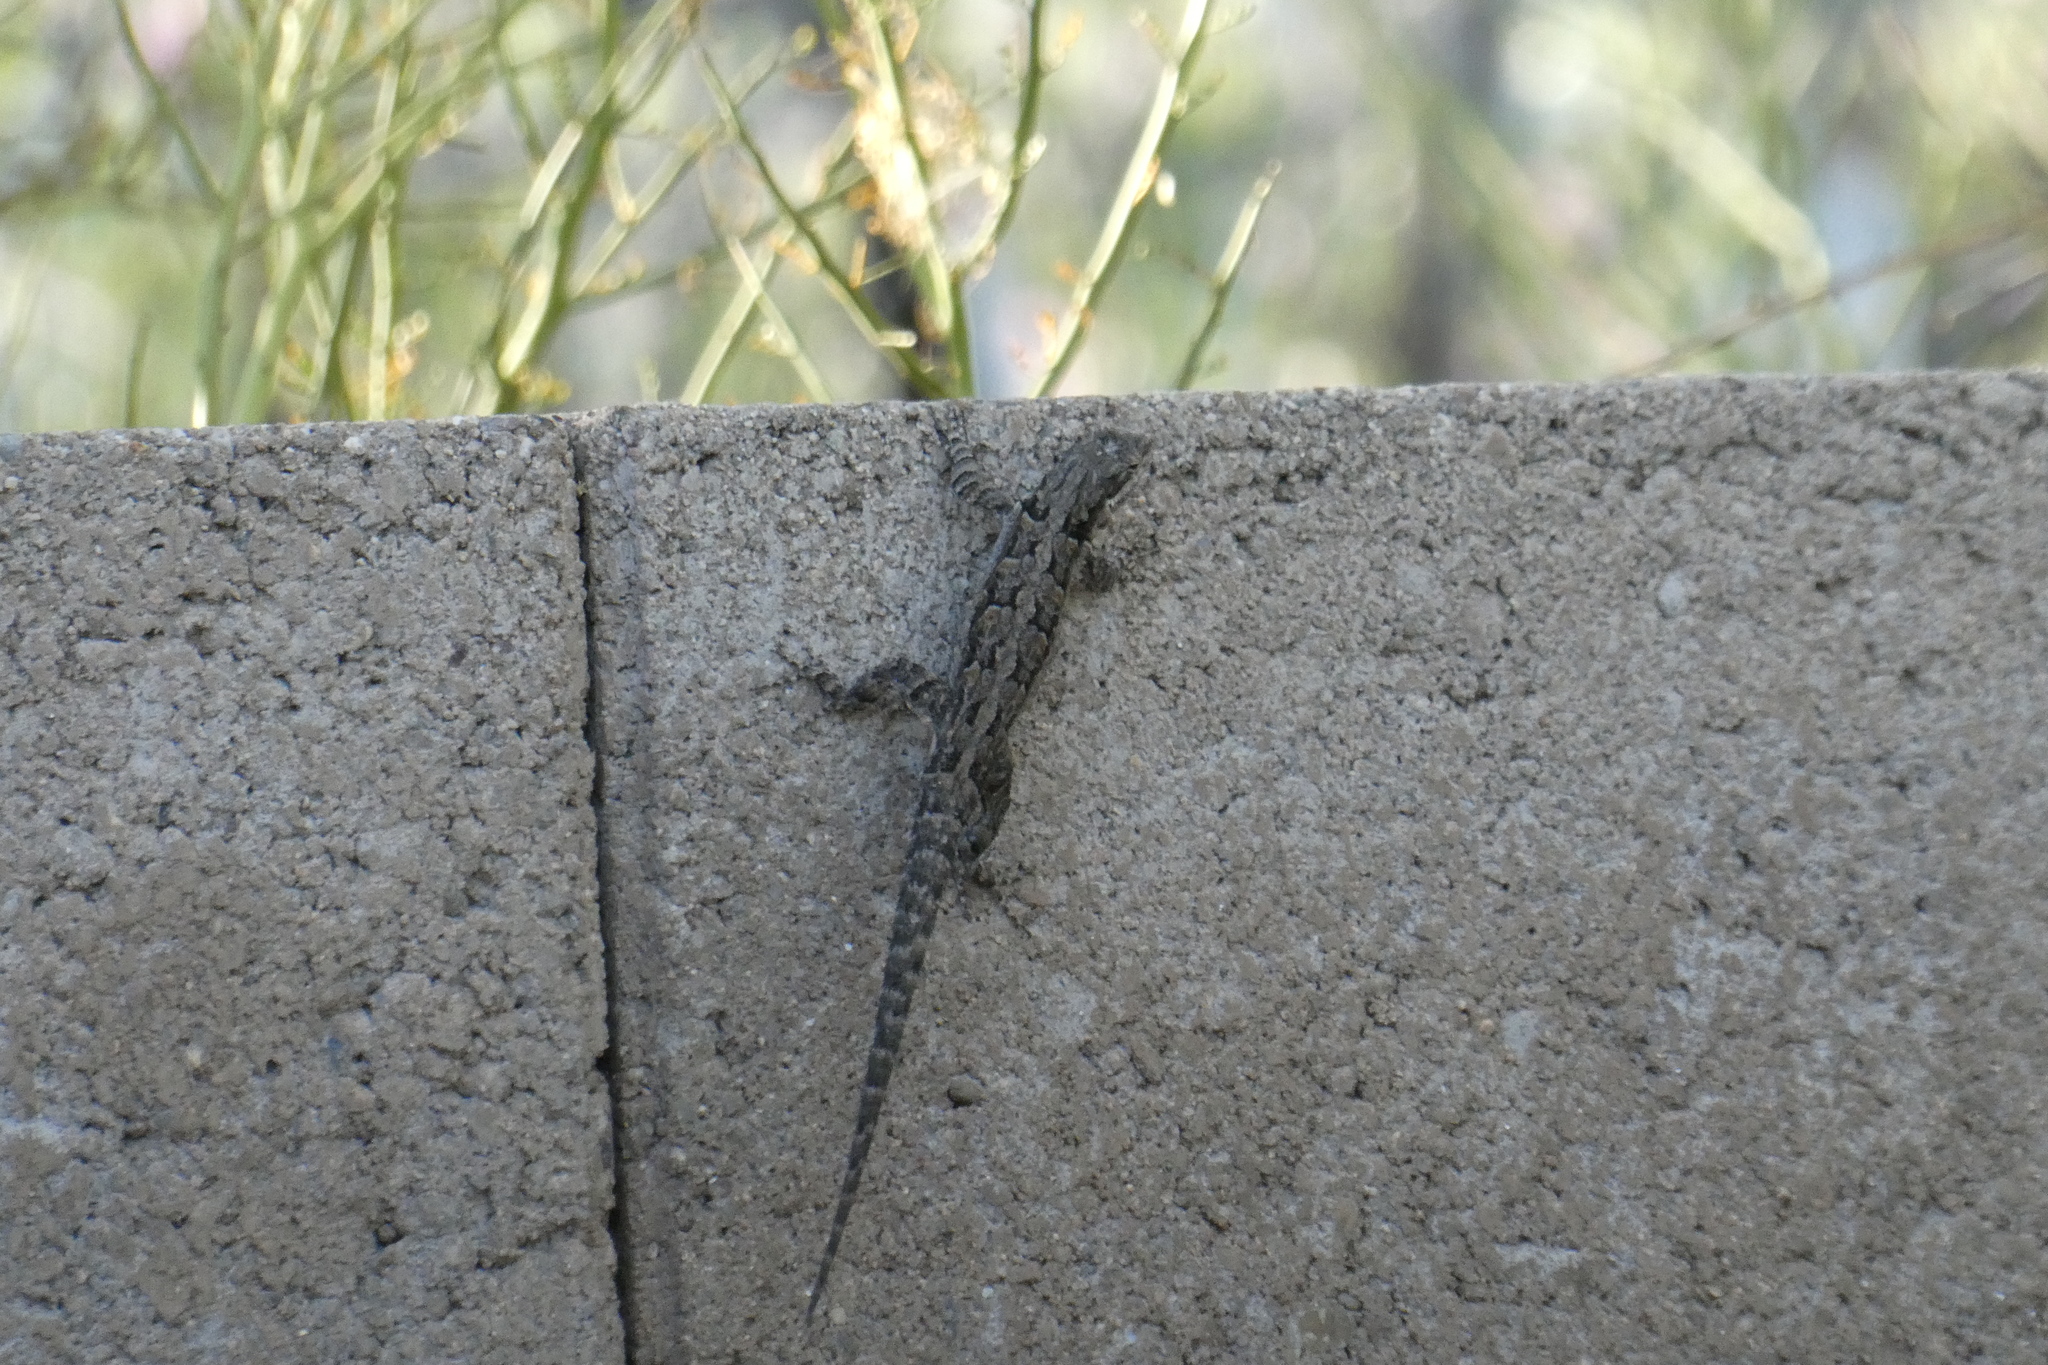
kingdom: Animalia
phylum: Chordata
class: Squamata
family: Phrynosomatidae
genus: Urosaurus
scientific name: Urosaurus ornatus
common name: Ornate tree lizard
